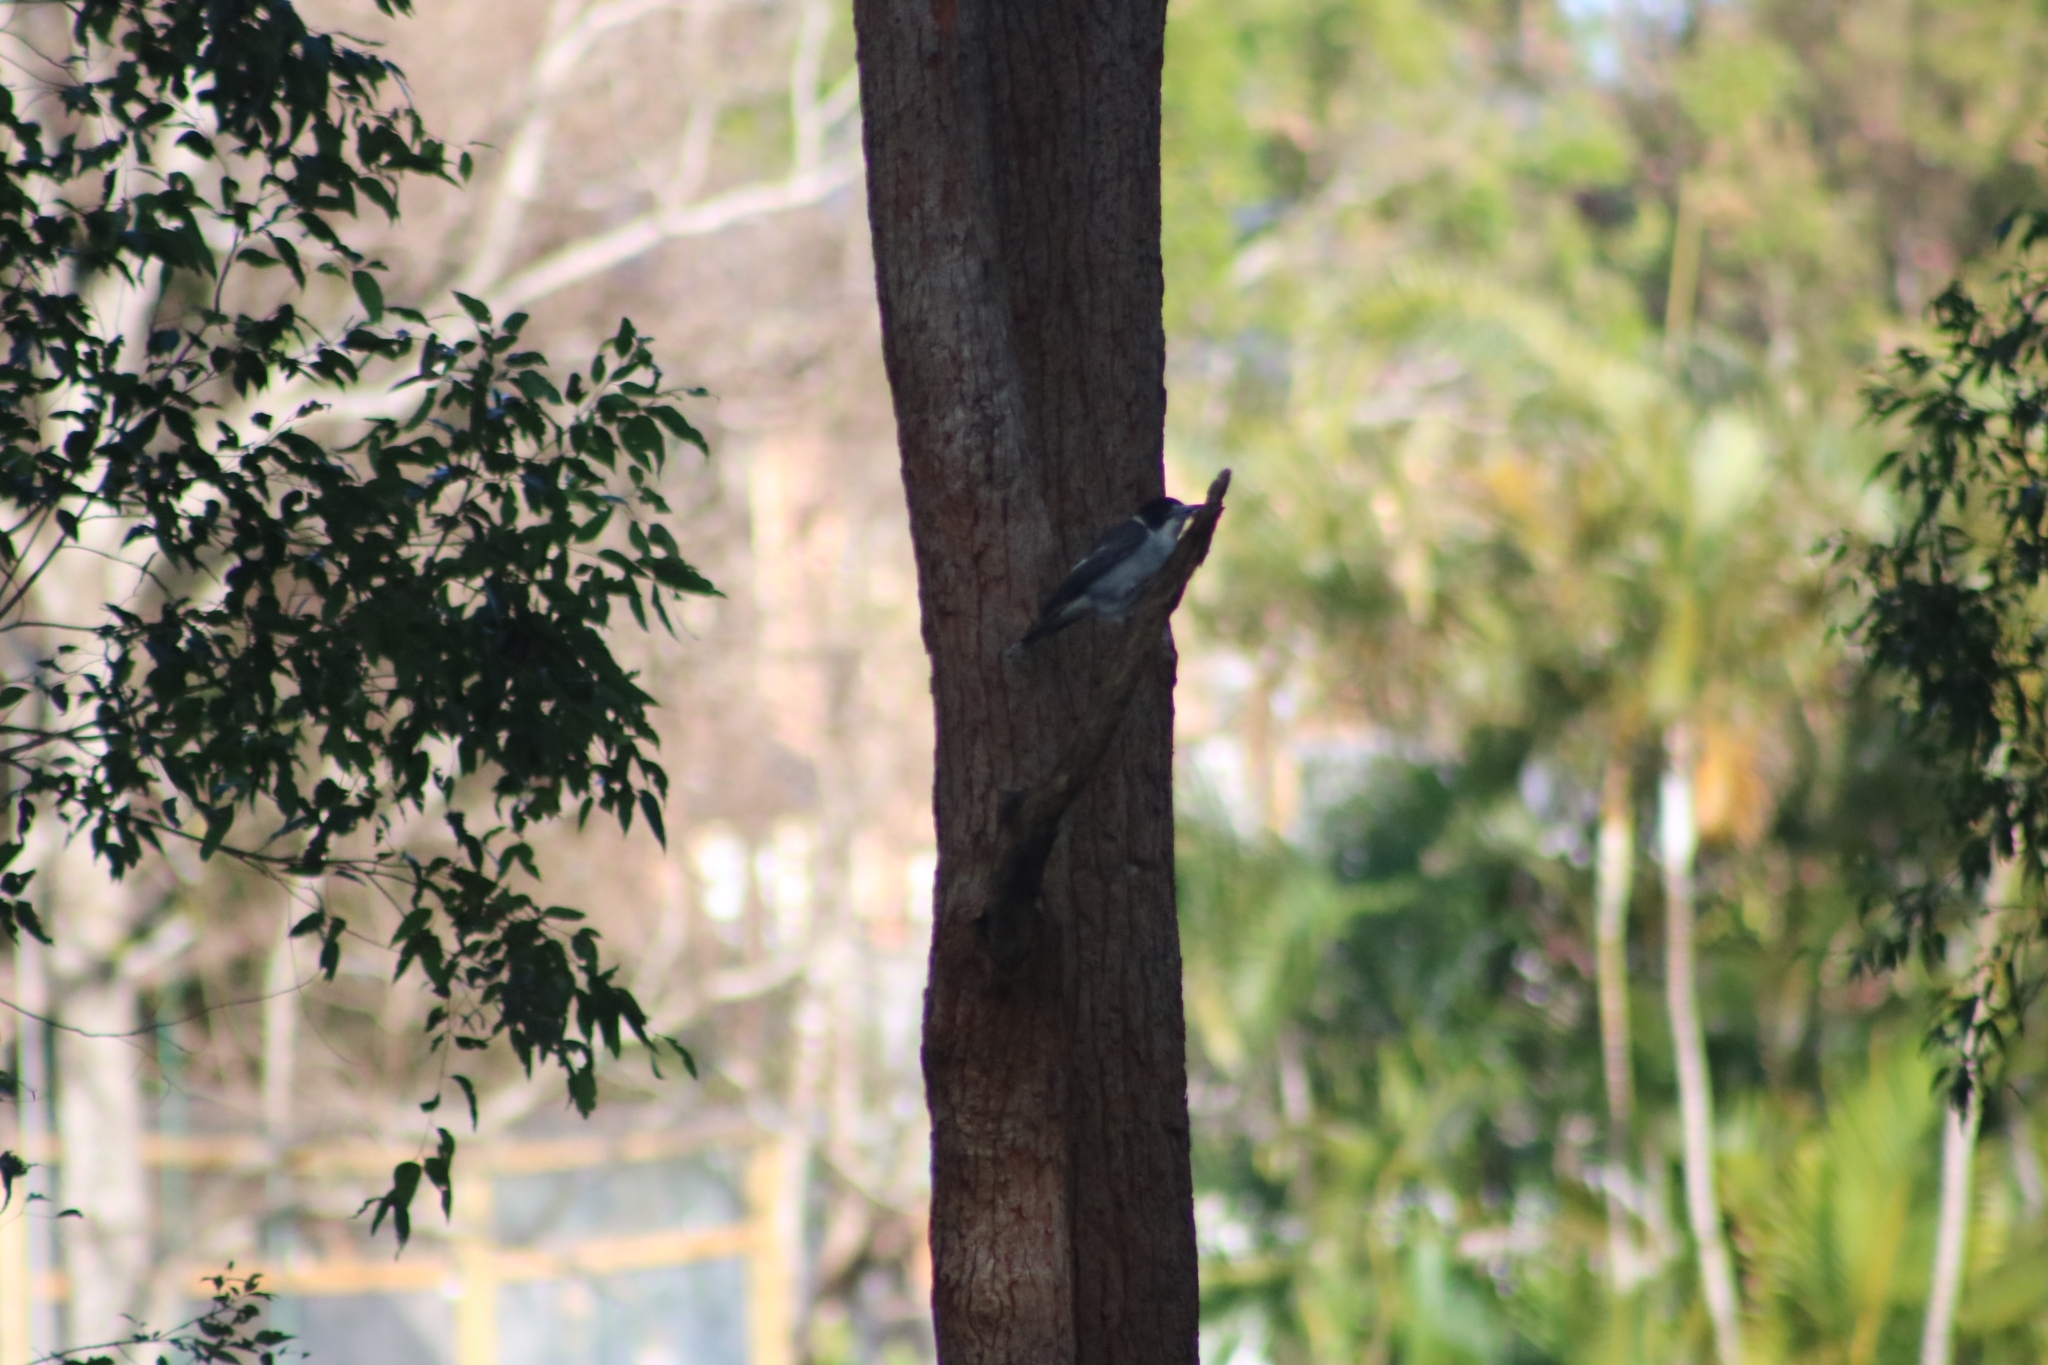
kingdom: Animalia
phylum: Chordata
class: Aves
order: Passeriformes
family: Cracticidae
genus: Cracticus
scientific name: Cracticus torquatus
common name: Grey butcherbird
